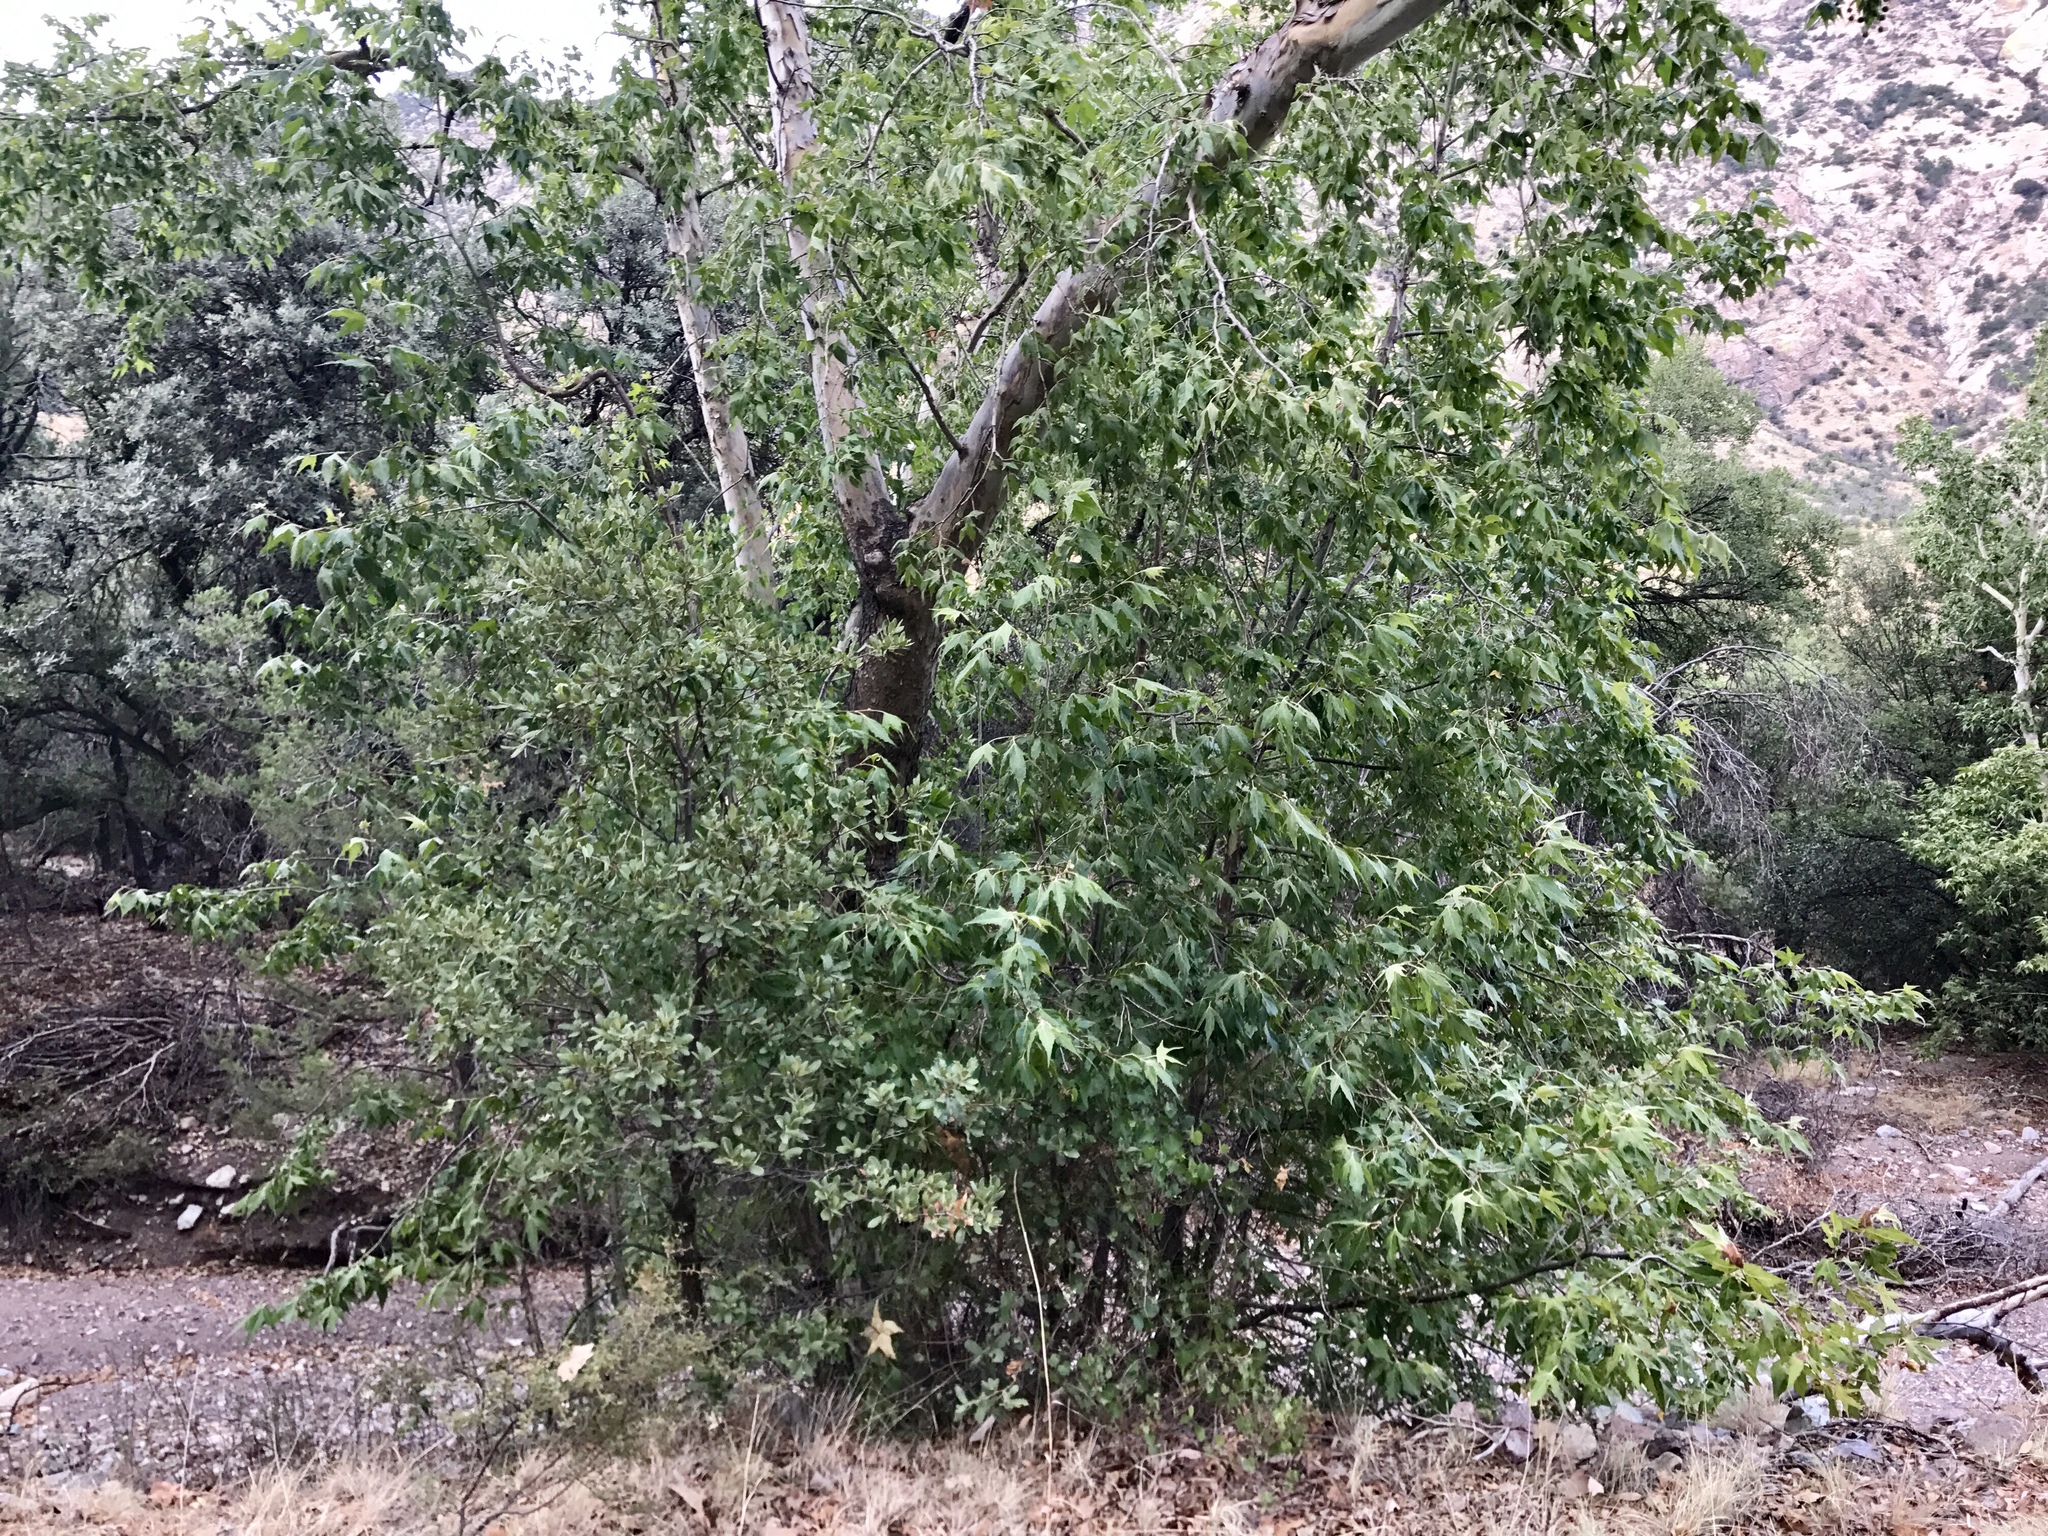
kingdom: Plantae
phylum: Tracheophyta
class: Magnoliopsida
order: Proteales
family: Platanaceae
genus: Platanus
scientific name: Platanus wrightii
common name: Arizona sycamore
